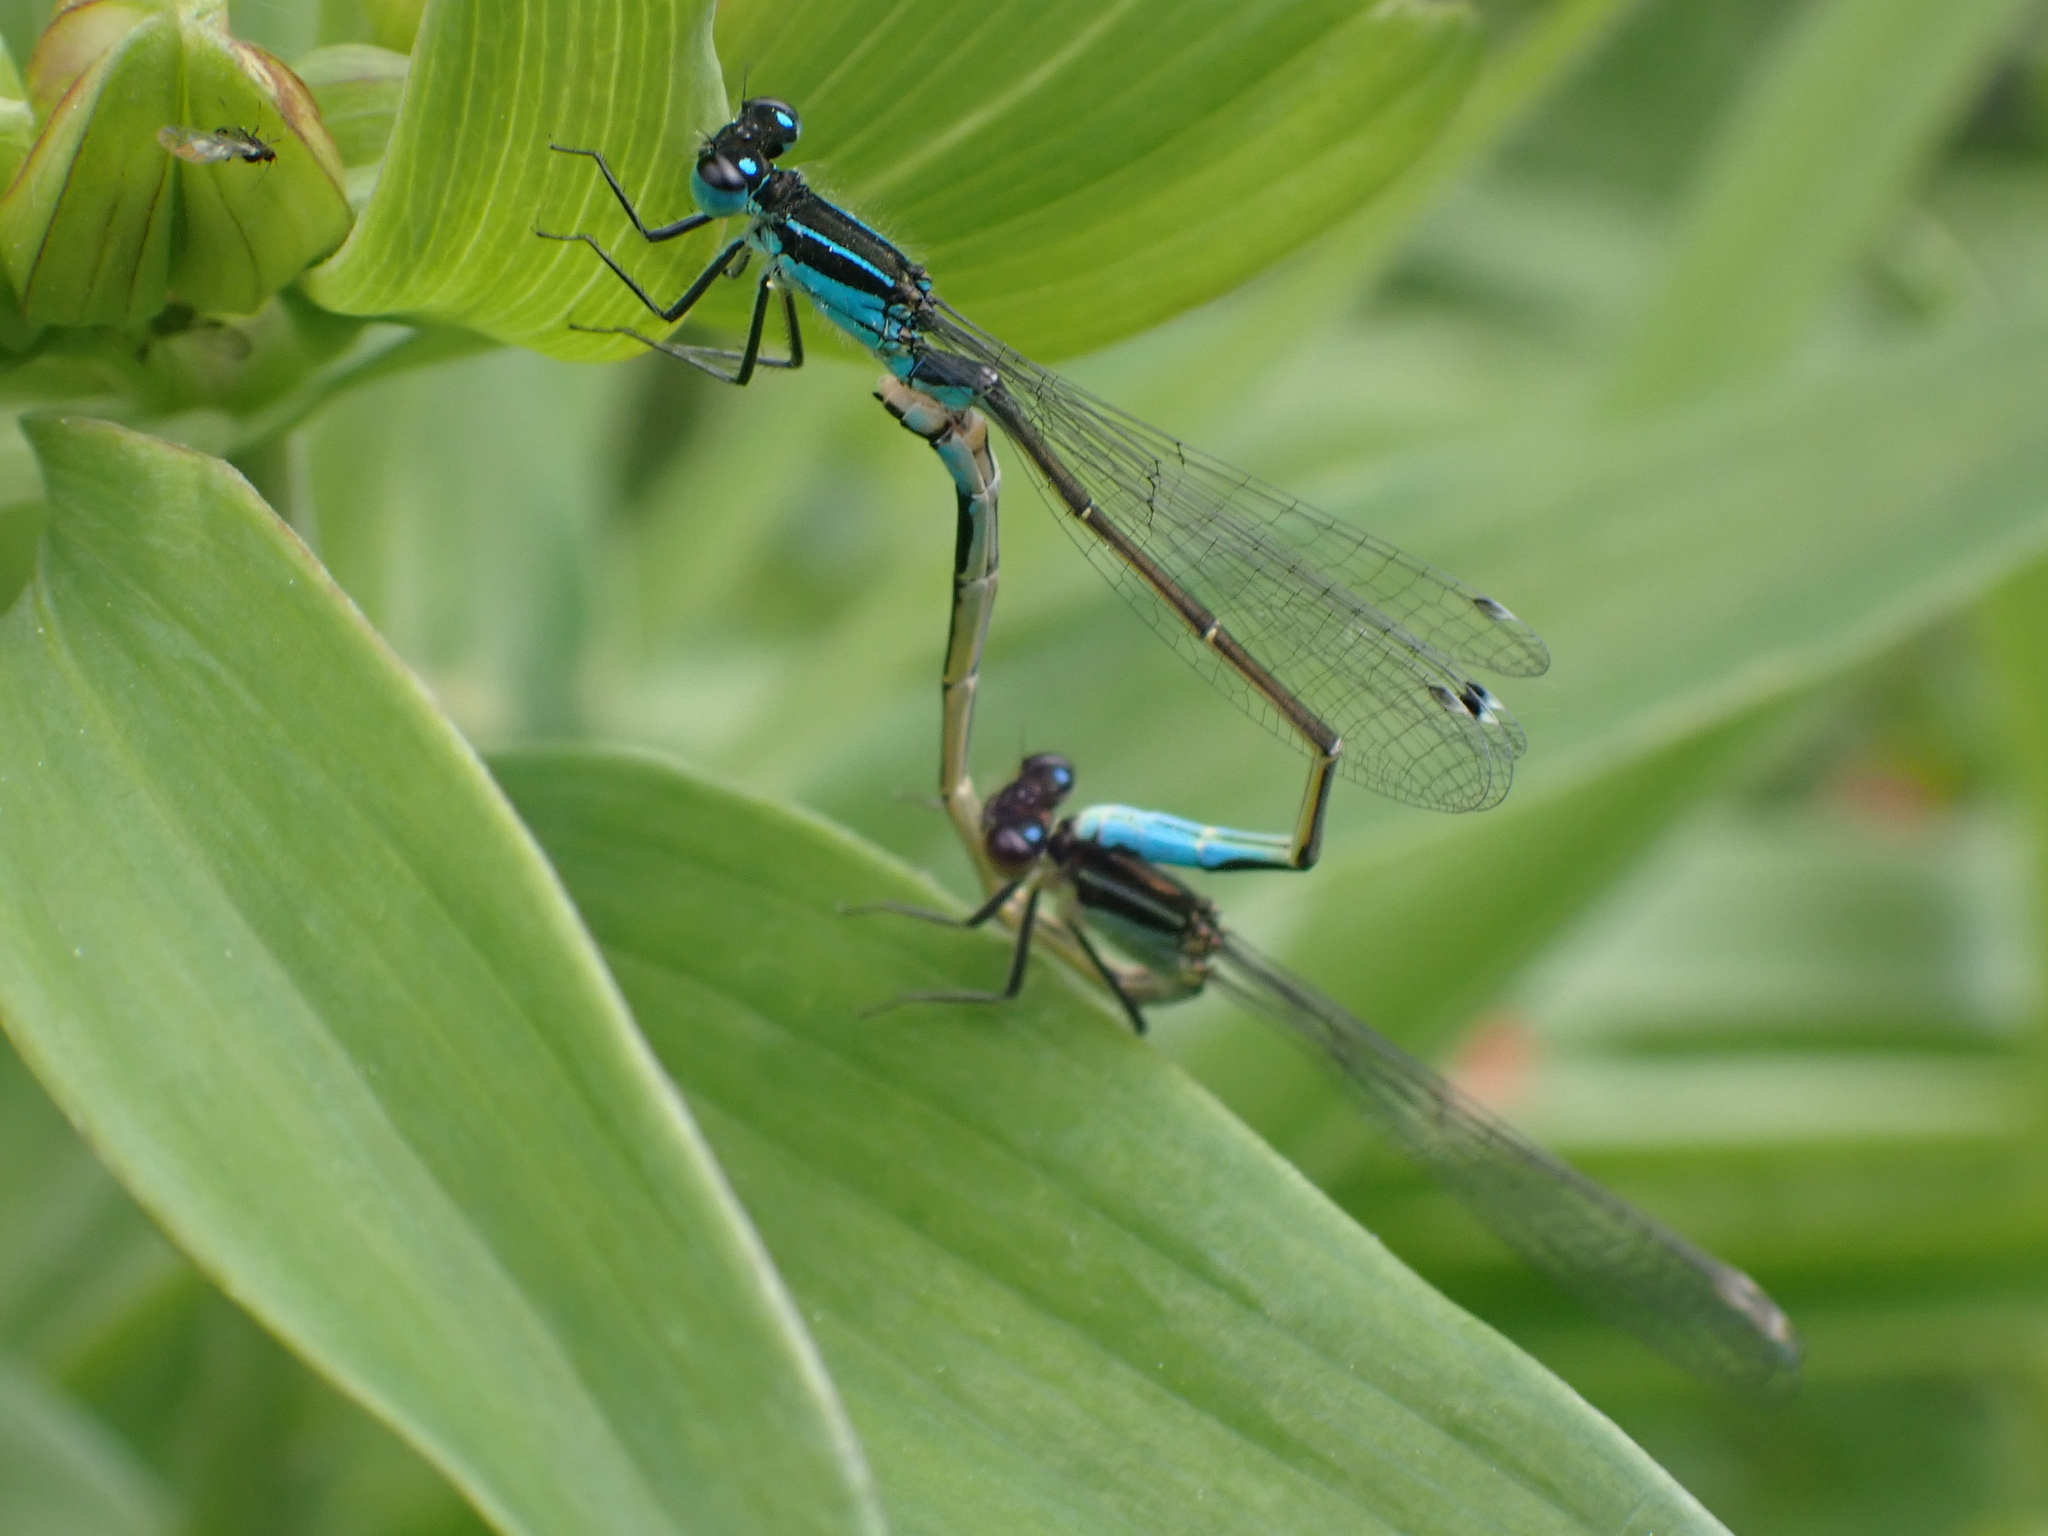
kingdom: Animalia
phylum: Arthropoda
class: Insecta
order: Odonata
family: Coenagrionidae
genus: Ischnura
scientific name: Ischnura elegans
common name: Blue-tailed damselfly
